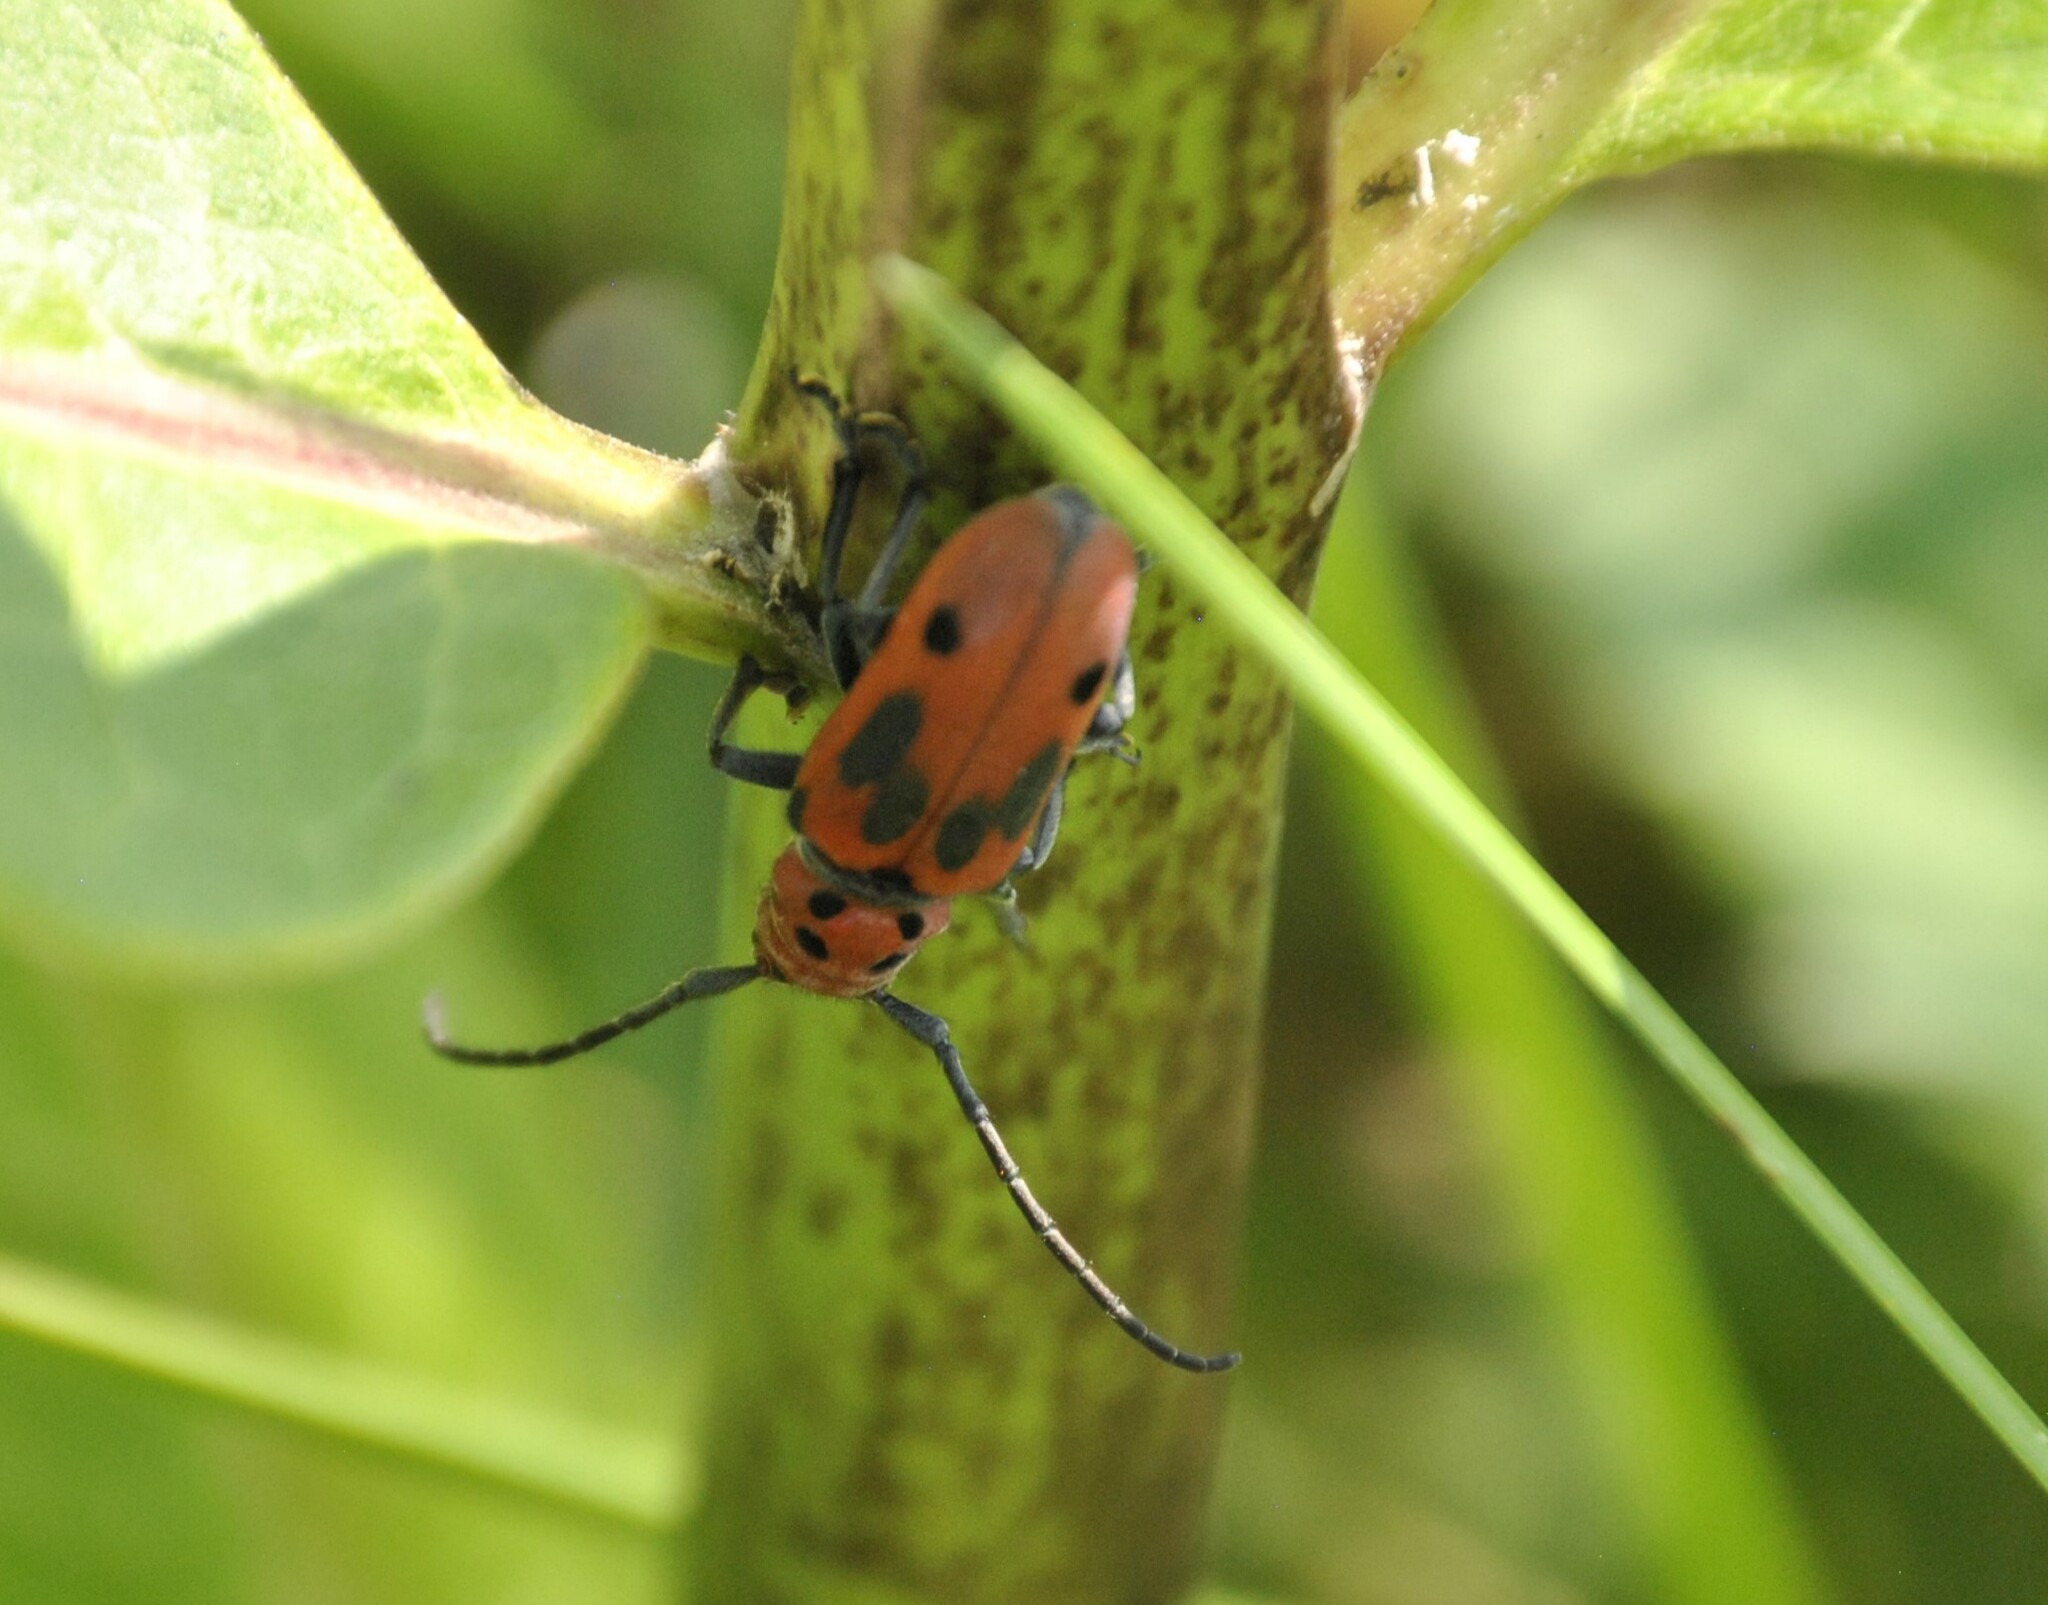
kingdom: Animalia
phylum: Arthropoda
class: Insecta
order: Coleoptera
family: Cerambycidae
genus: Tetraopes
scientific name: Tetraopes tetrophthalmus
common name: Red milkweed beetle
